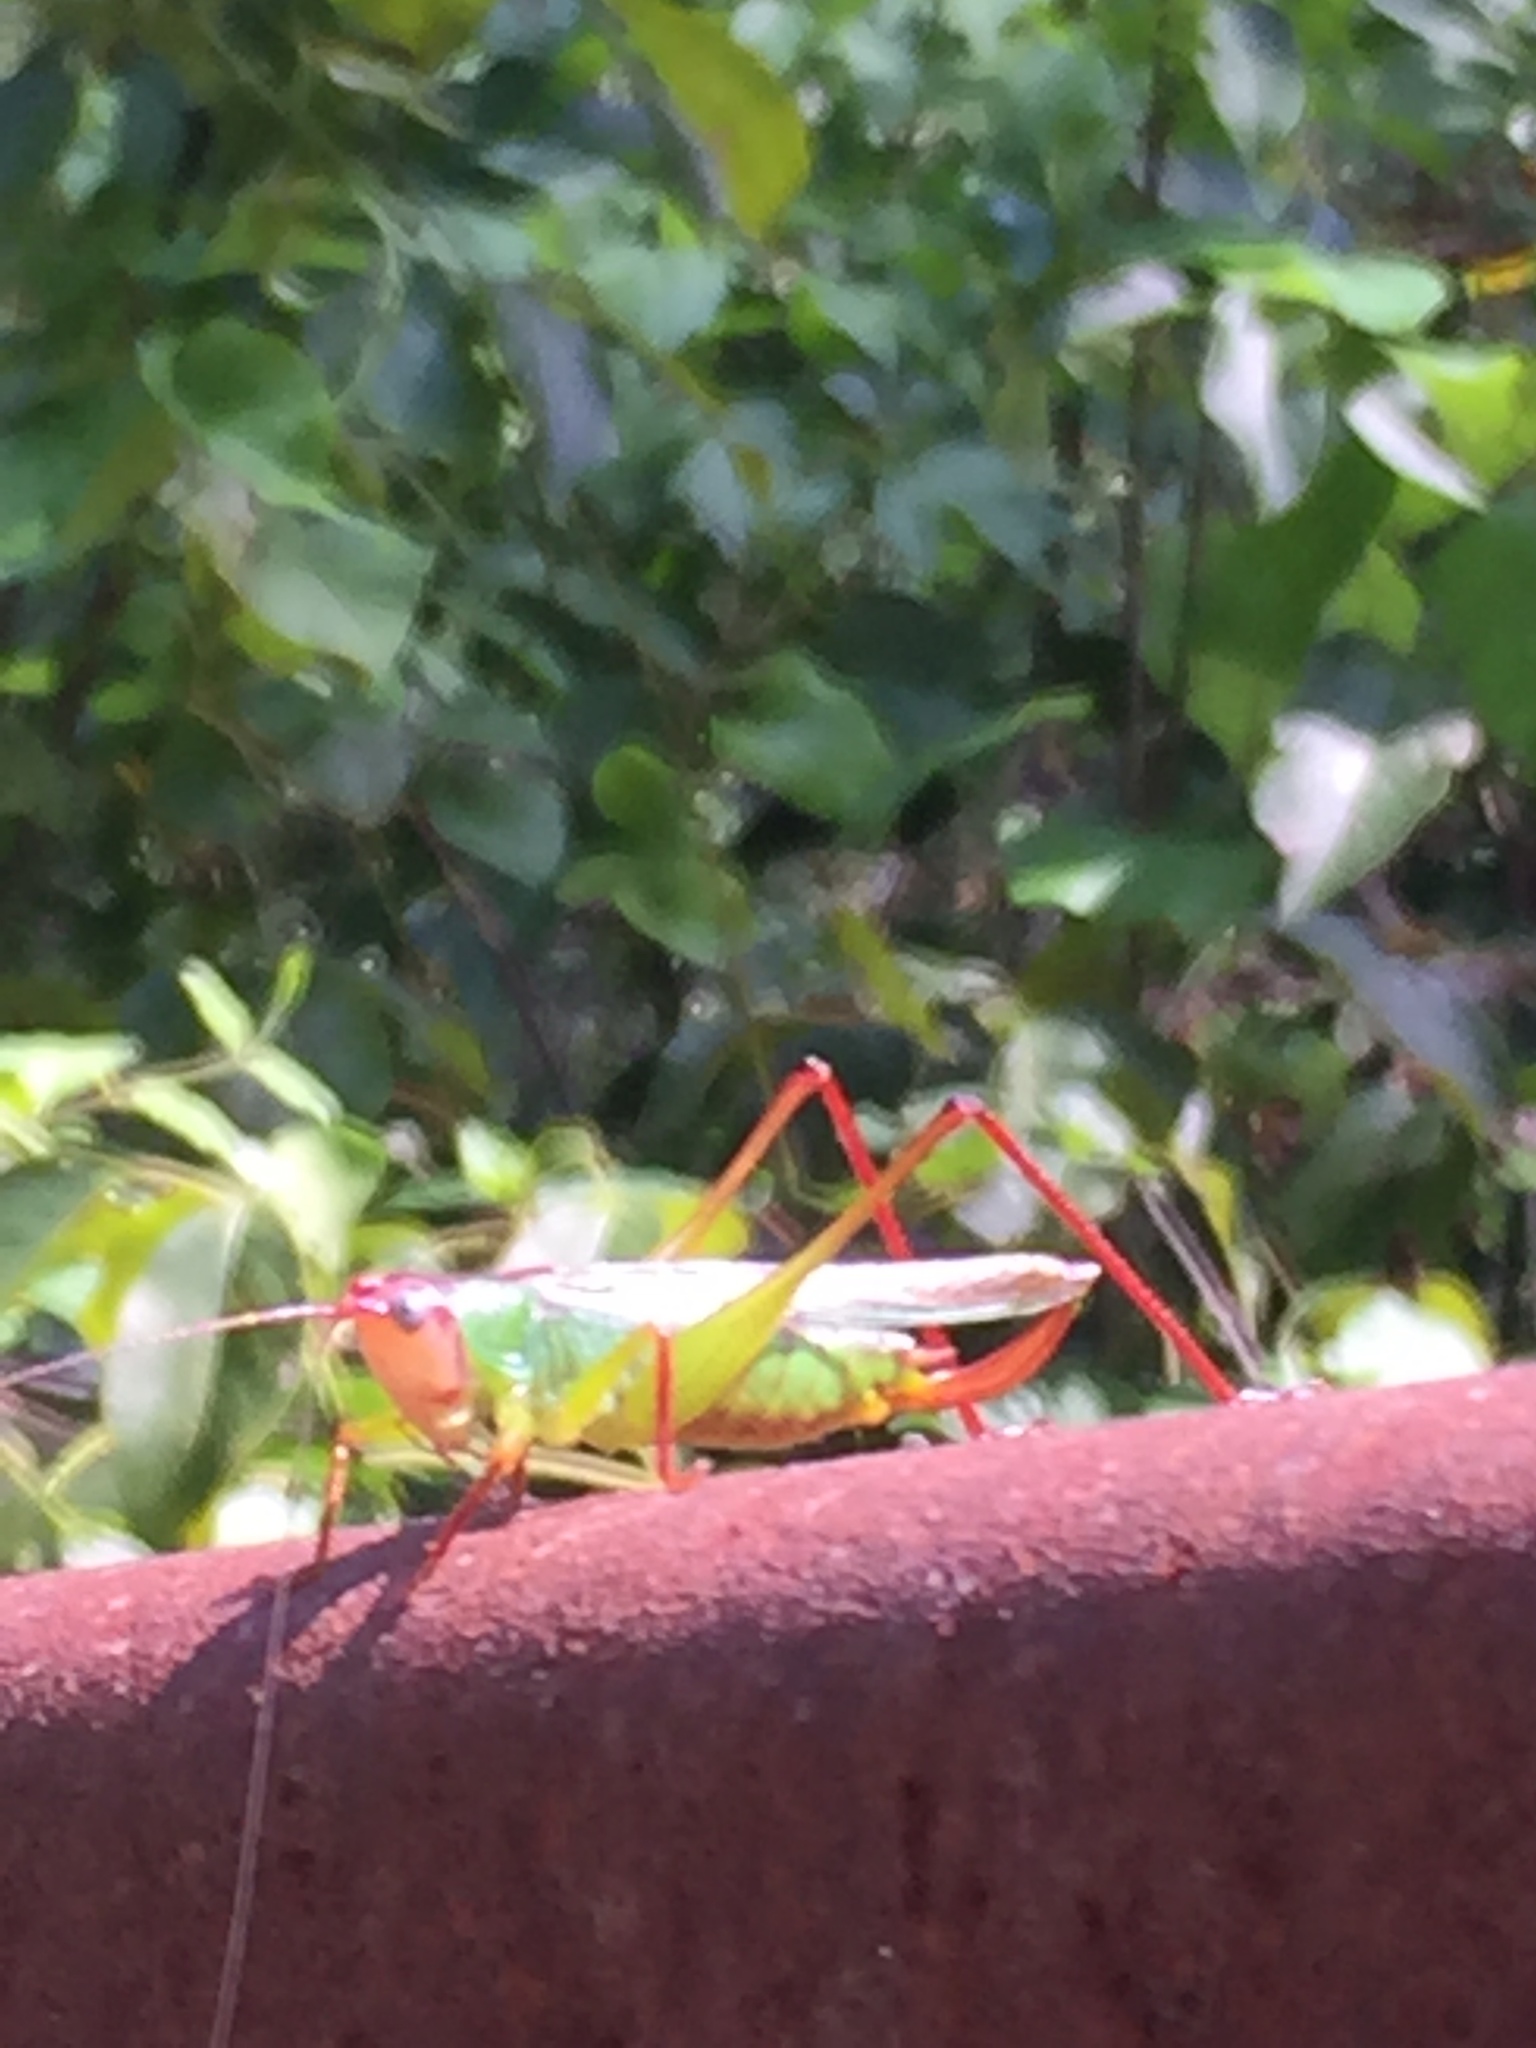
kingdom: Animalia
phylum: Arthropoda
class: Insecta
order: Orthoptera
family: Tettigoniidae
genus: Orchelimum
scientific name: Orchelimum pulchellum
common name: Handsome meadow katydid
